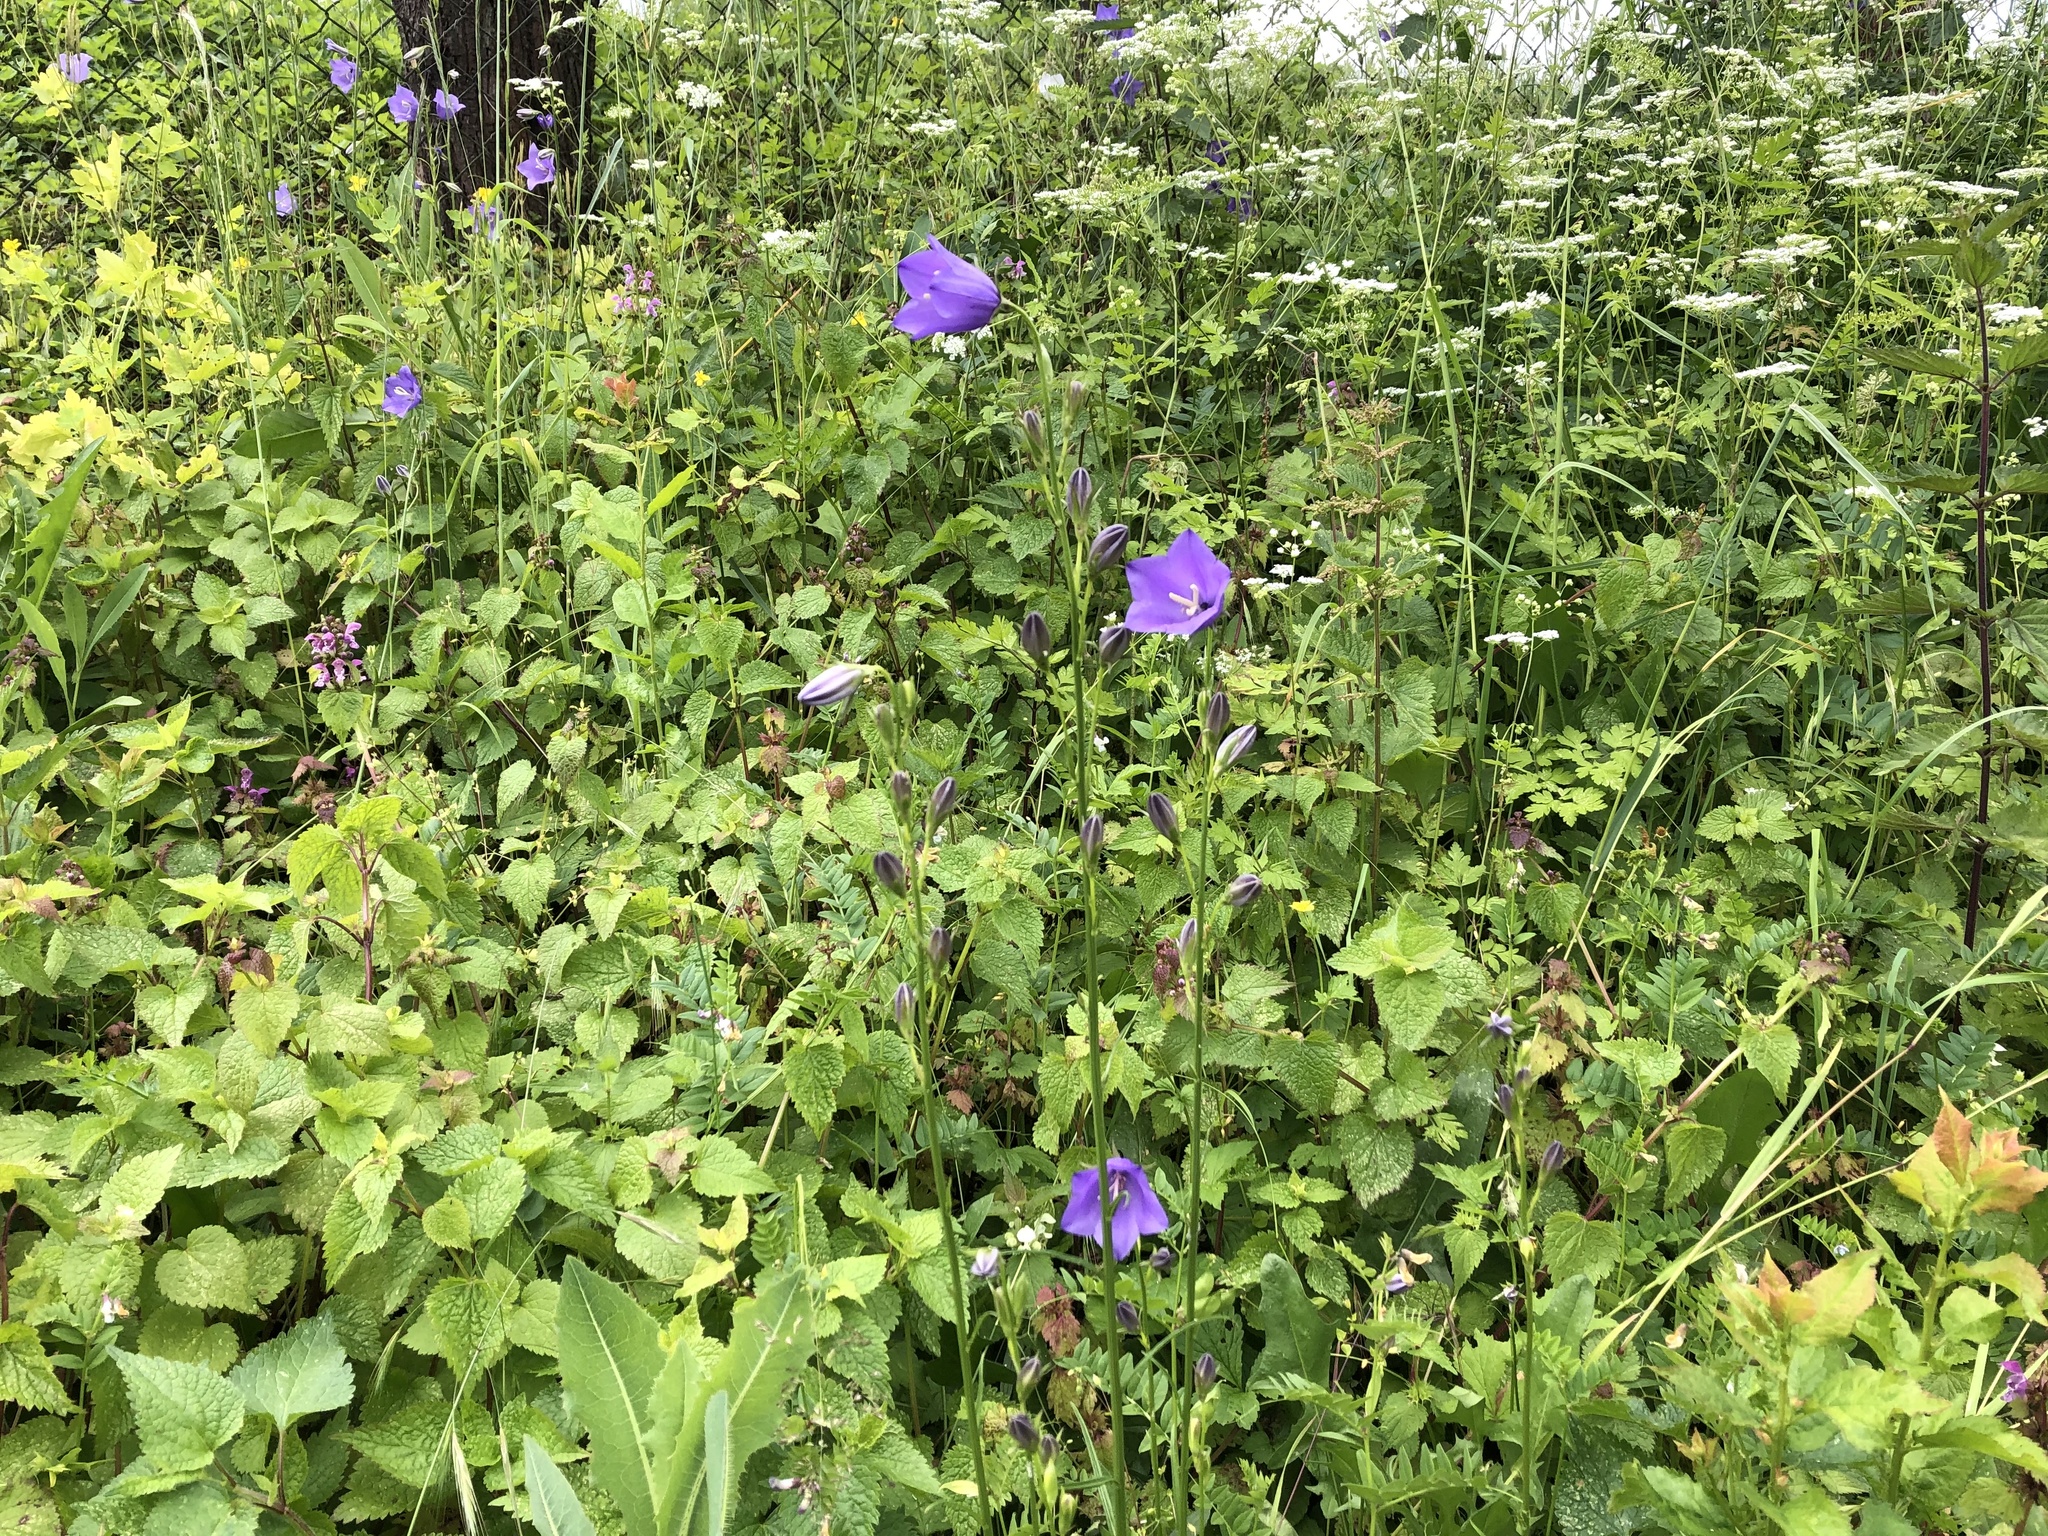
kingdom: Plantae
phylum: Tracheophyta
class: Magnoliopsida
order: Asterales
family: Campanulaceae
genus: Campanula
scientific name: Campanula persicifolia
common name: Peach-leaved bellflower
